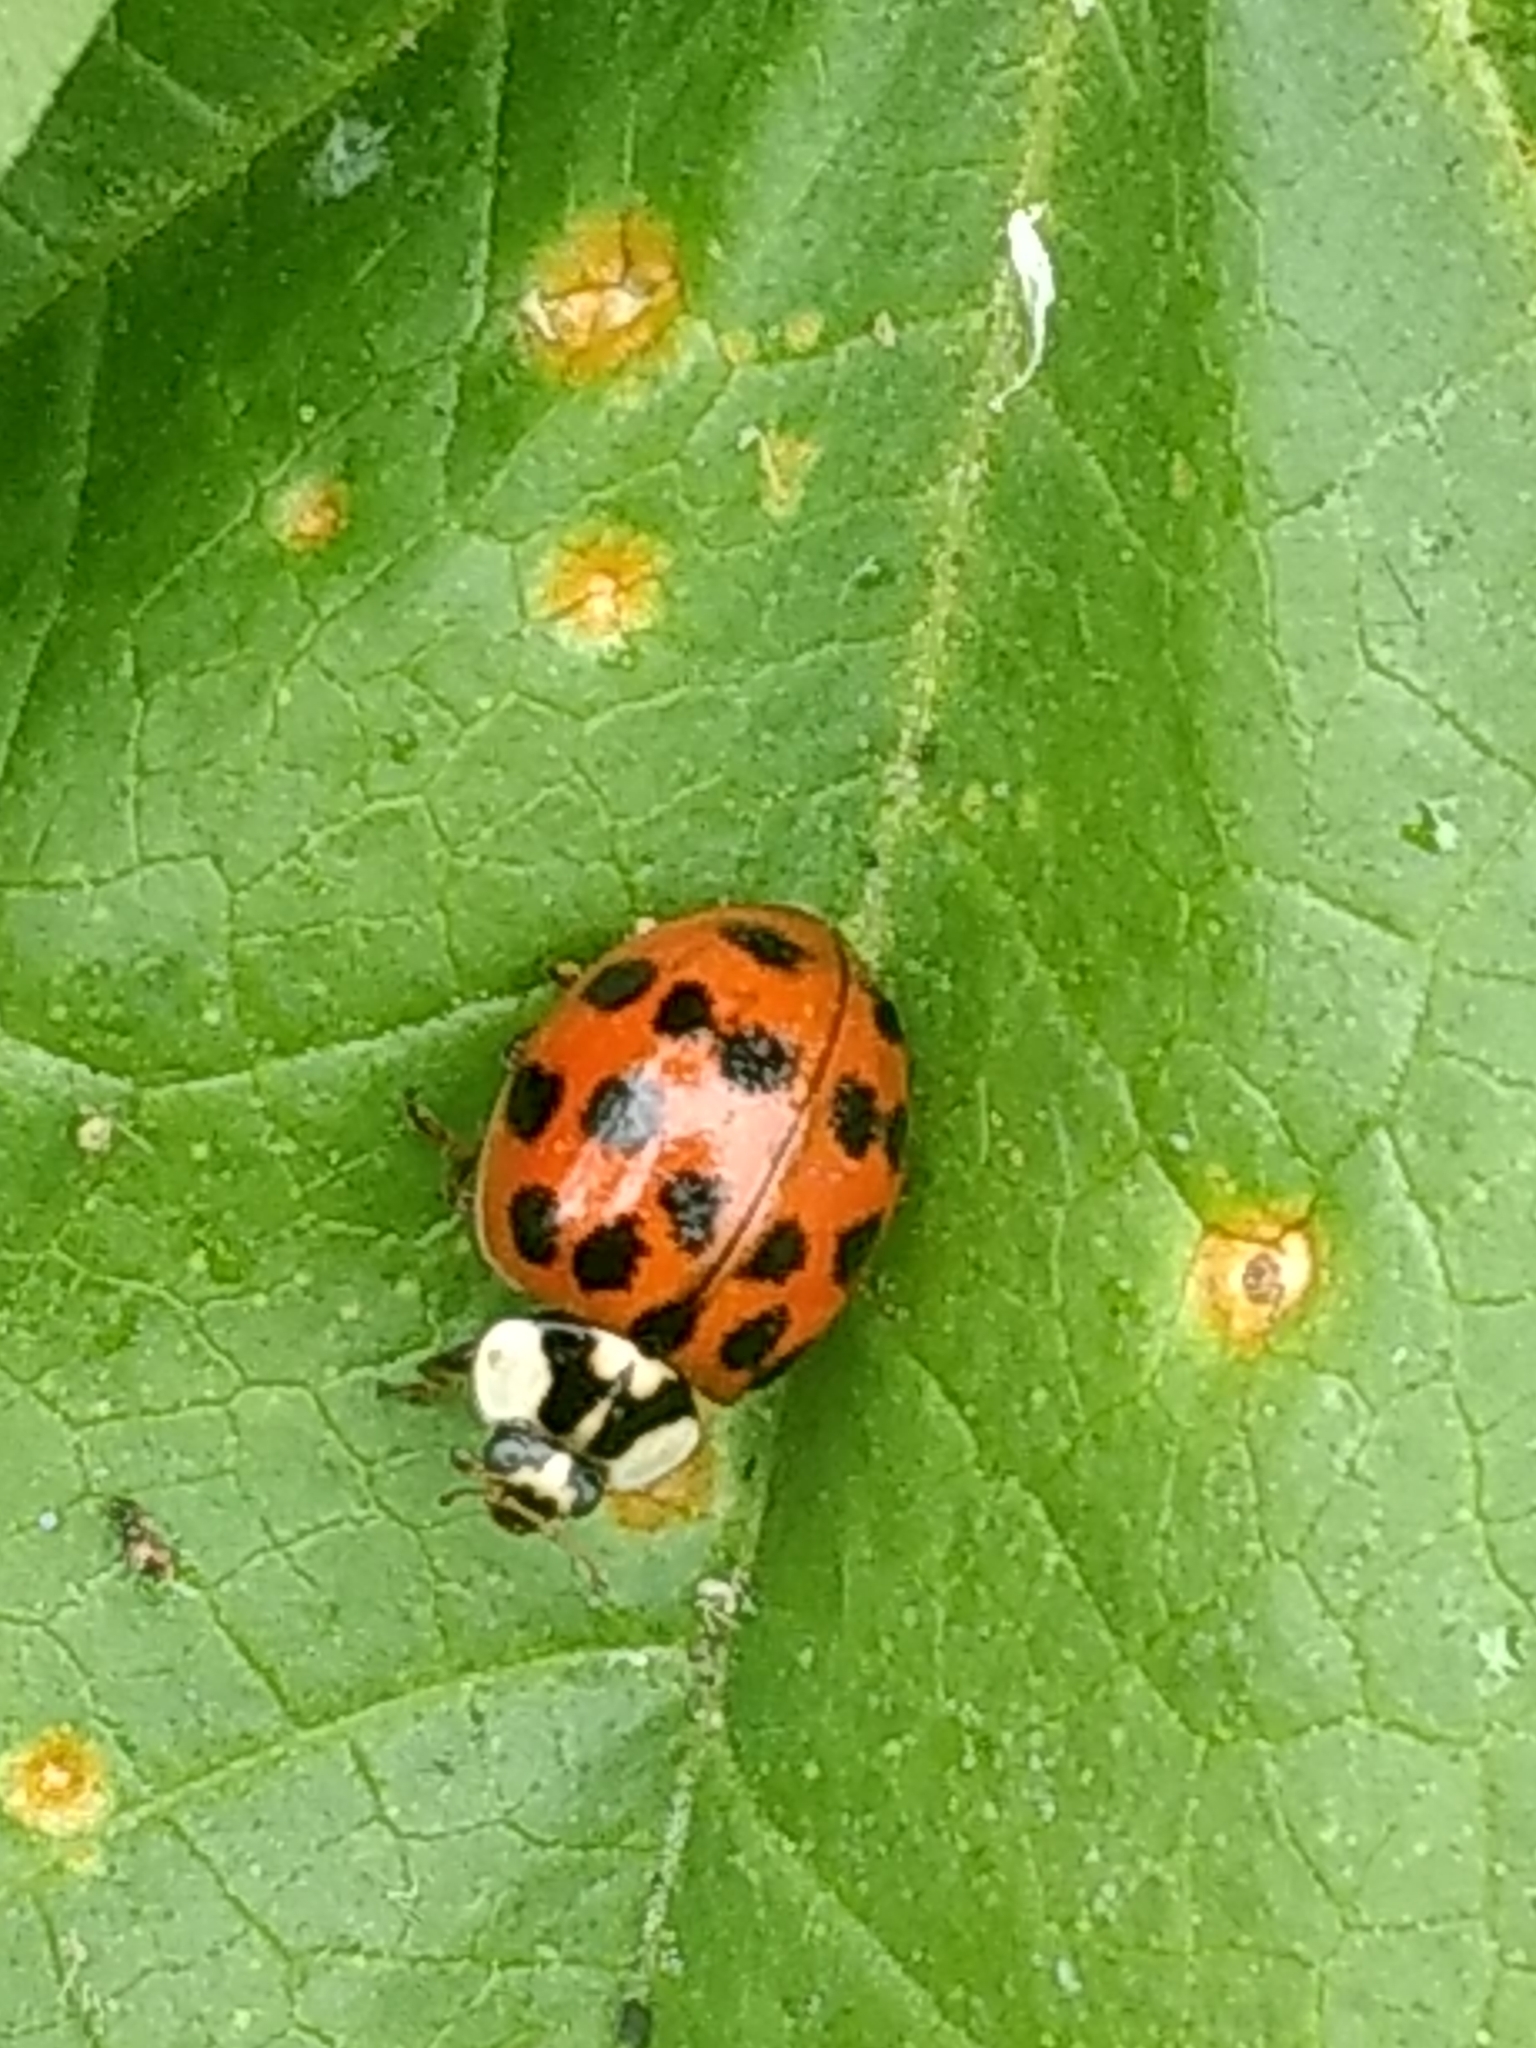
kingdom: Animalia
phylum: Arthropoda
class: Insecta
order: Coleoptera
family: Coccinellidae
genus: Harmonia
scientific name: Harmonia axyridis
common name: Harlequin ladybird
